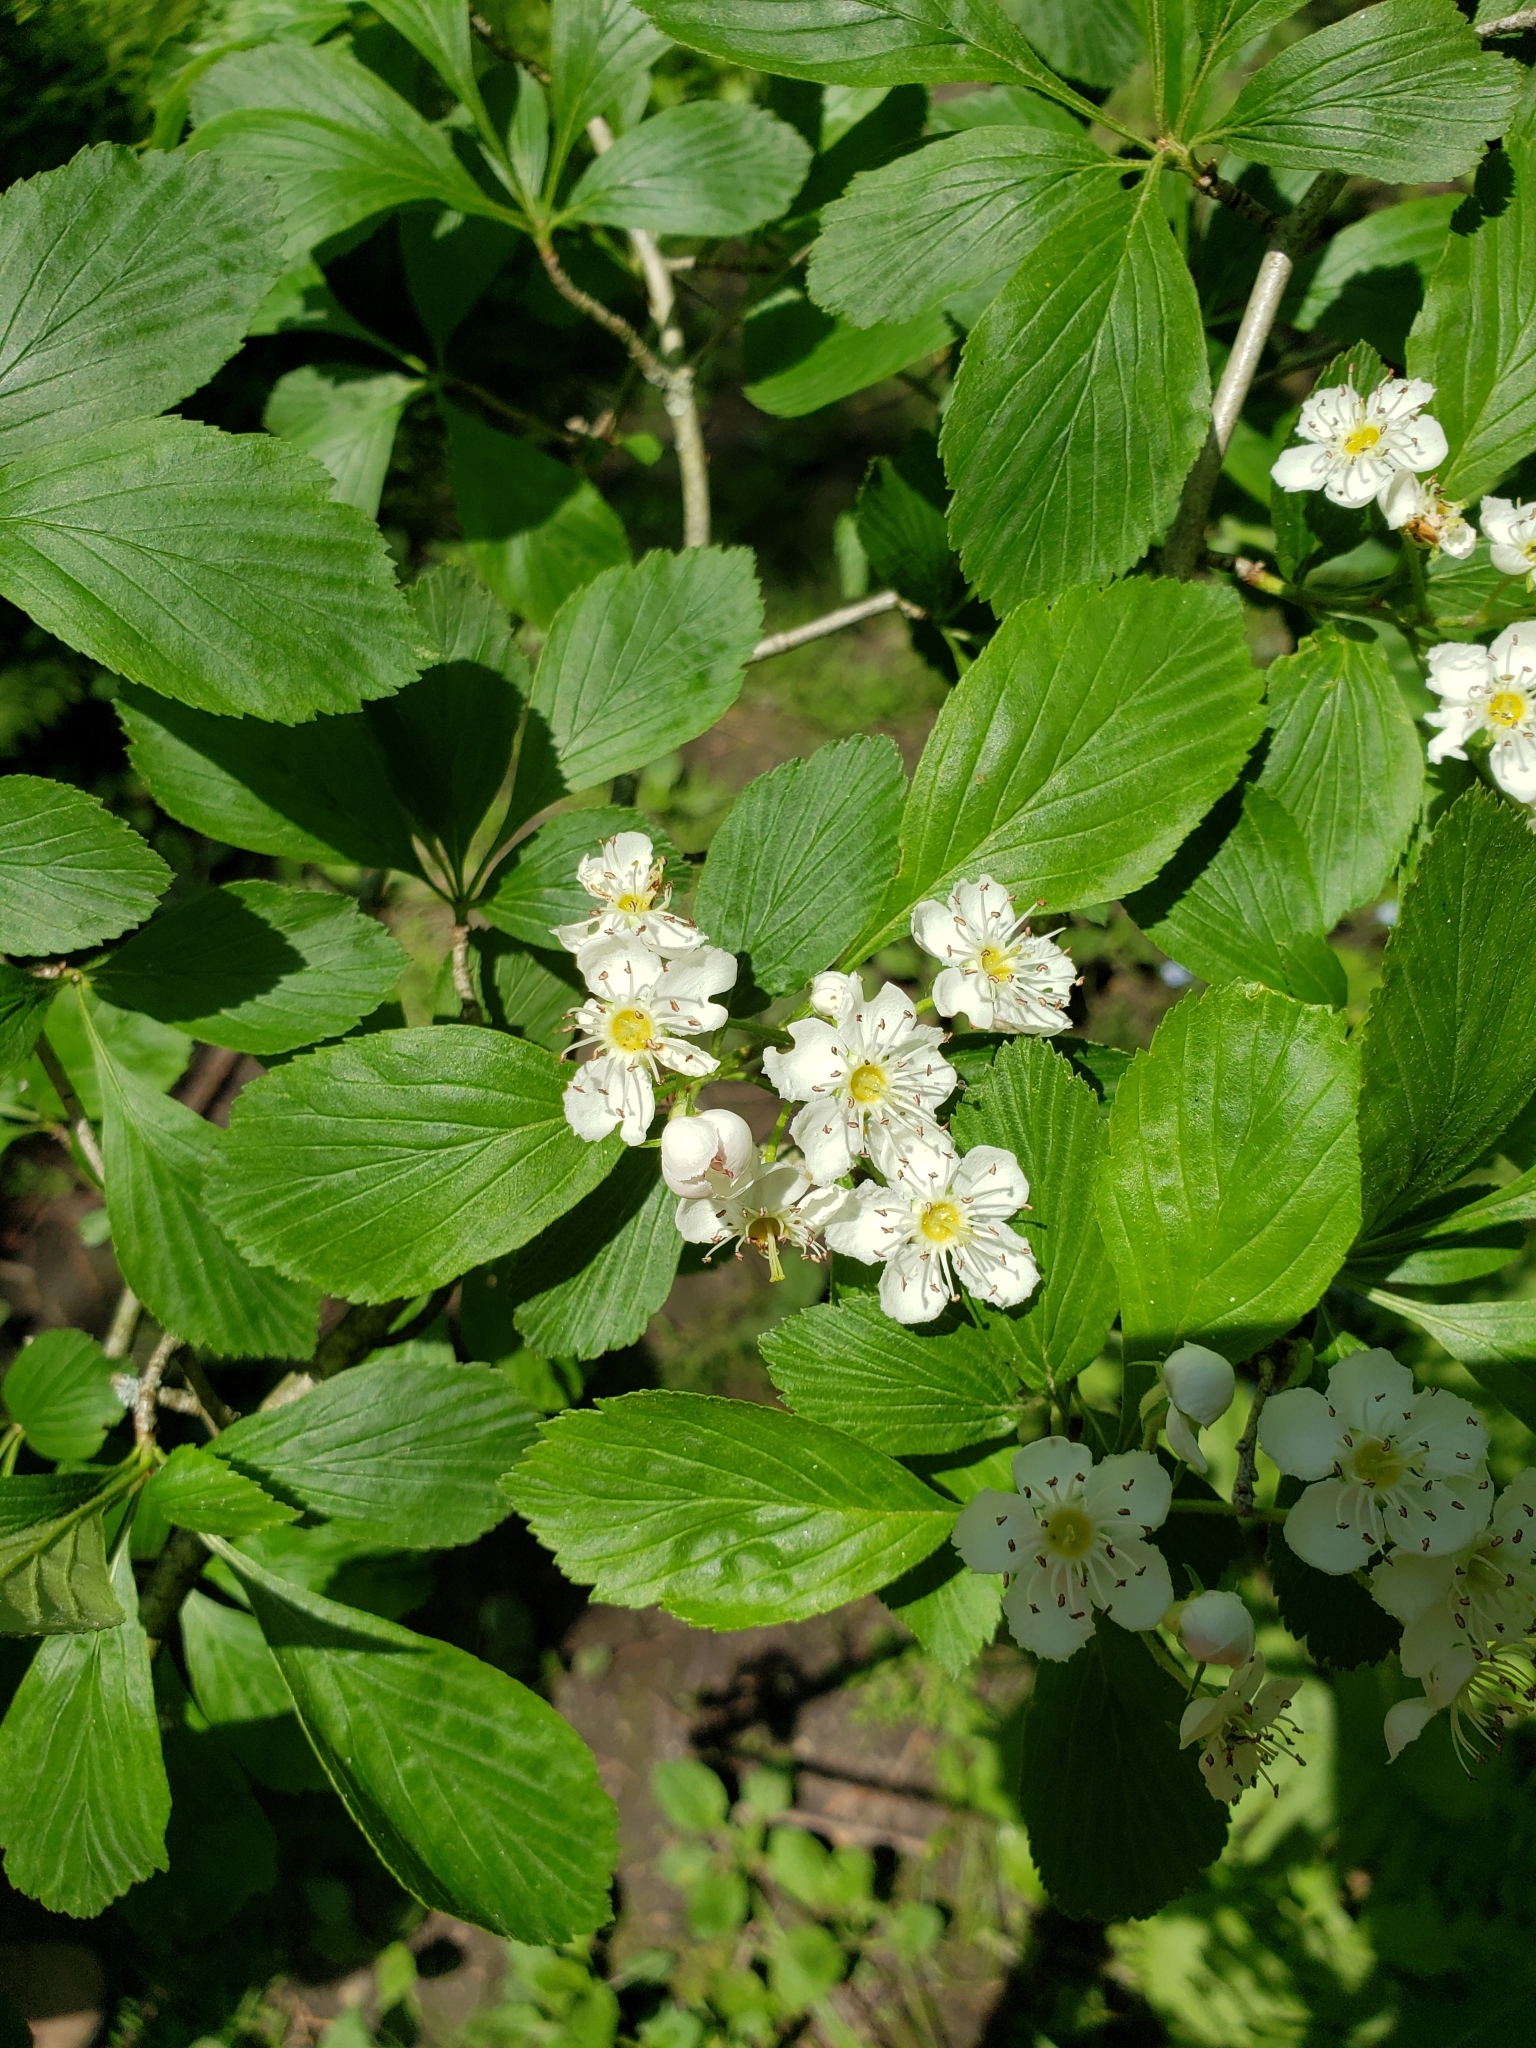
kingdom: Plantae
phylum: Tracheophyta
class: Magnoliopsida
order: Rosales
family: Rosaceae
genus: Crataegus
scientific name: Crataegus punctata
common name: Dotted hawthorn
